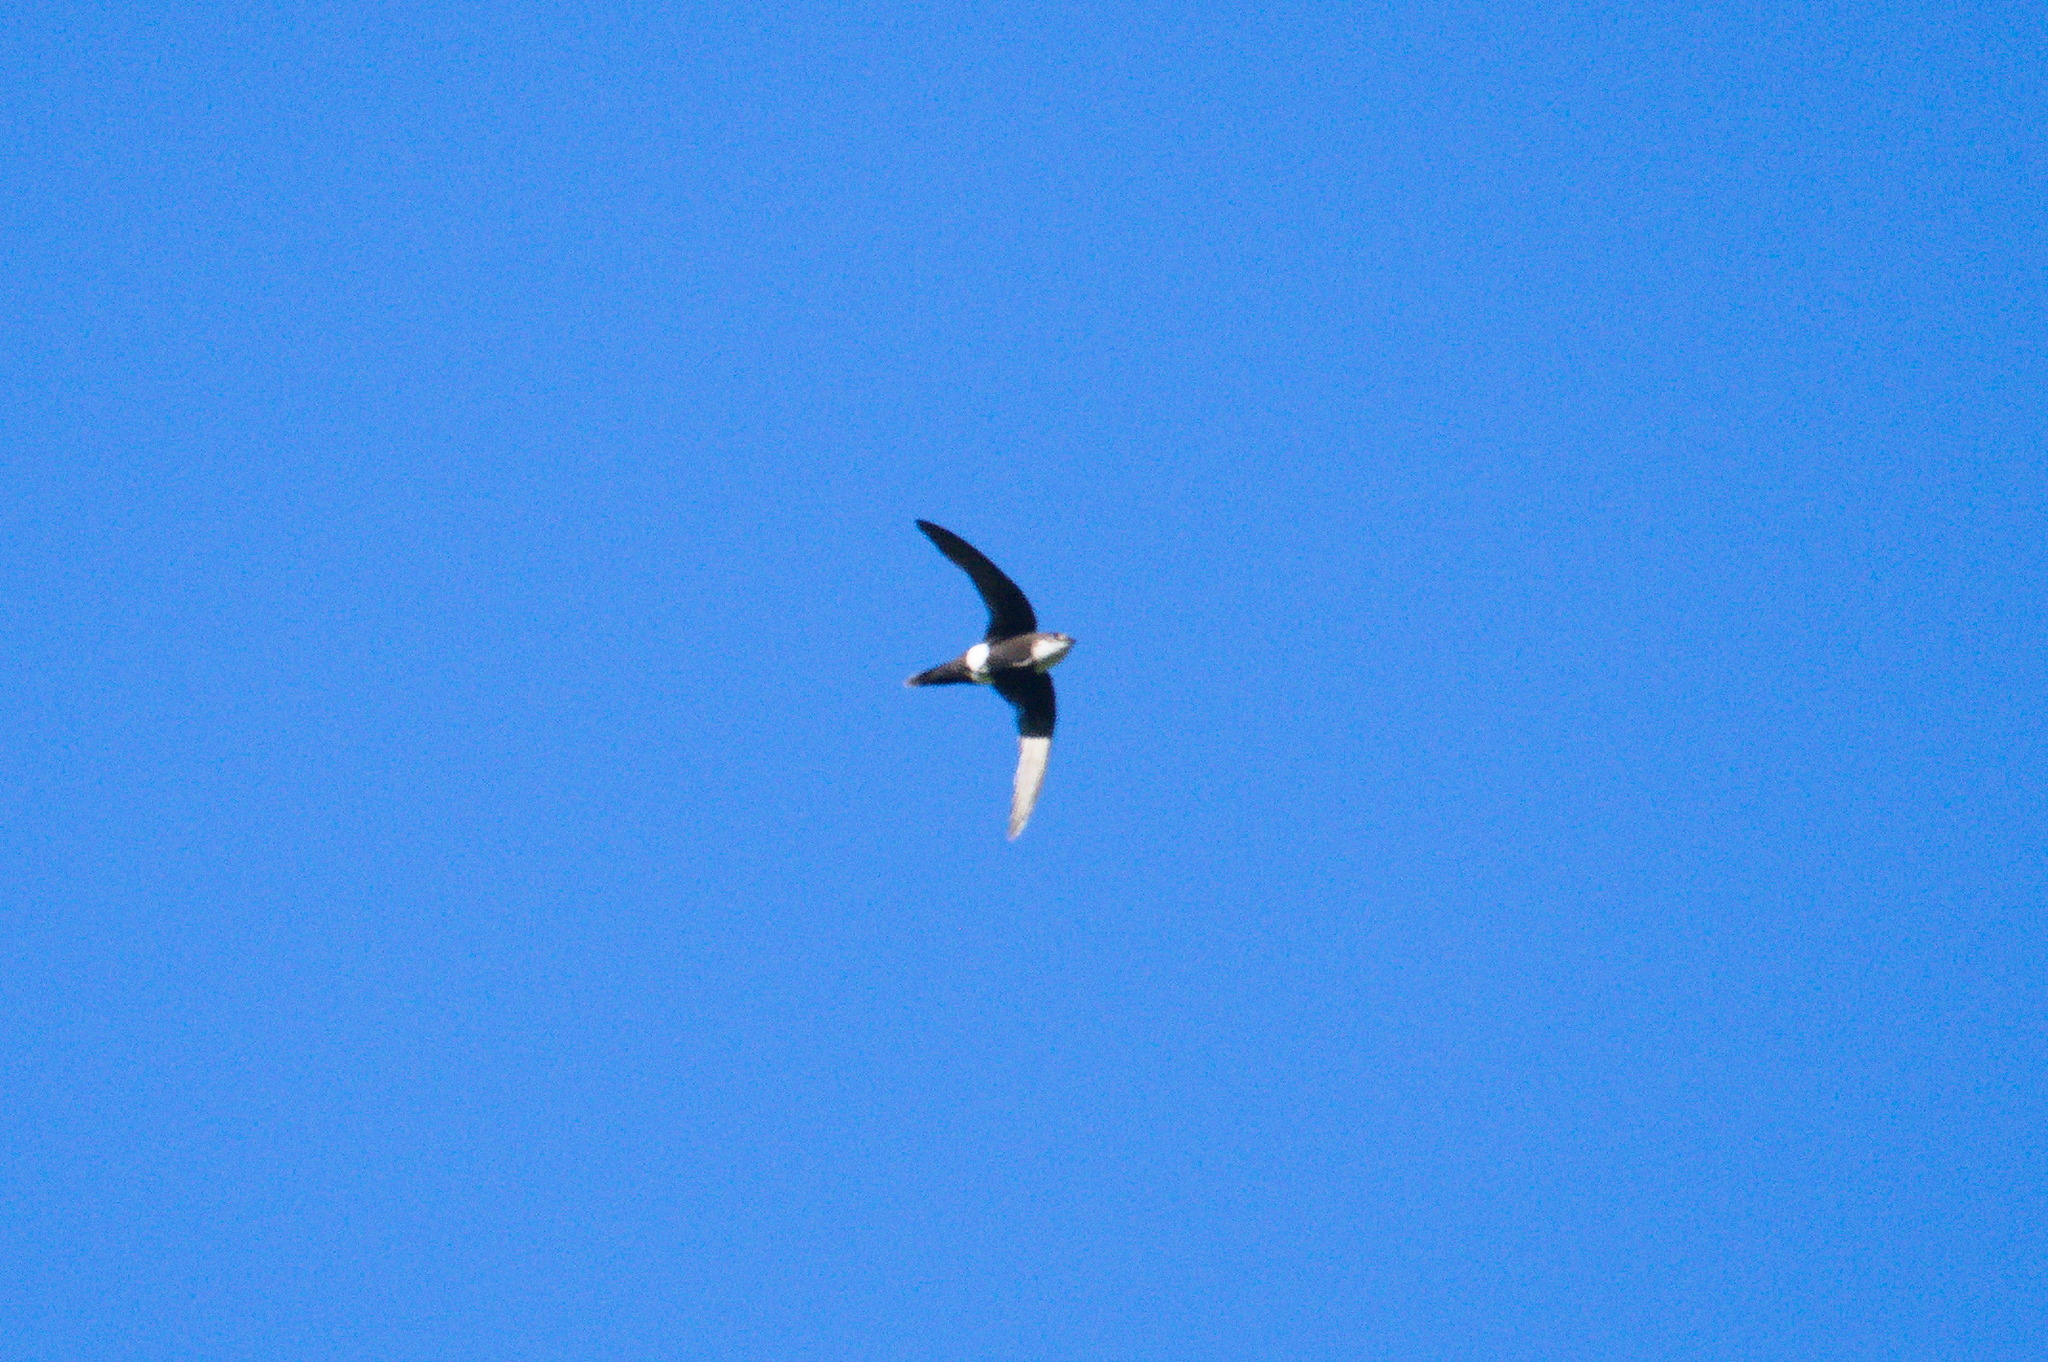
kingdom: Animalia
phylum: Chordata
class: Aves
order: Apodiformes
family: Apodidae
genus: Aeronautes
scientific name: Aeronautes montivagus
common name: White-tipped swift
